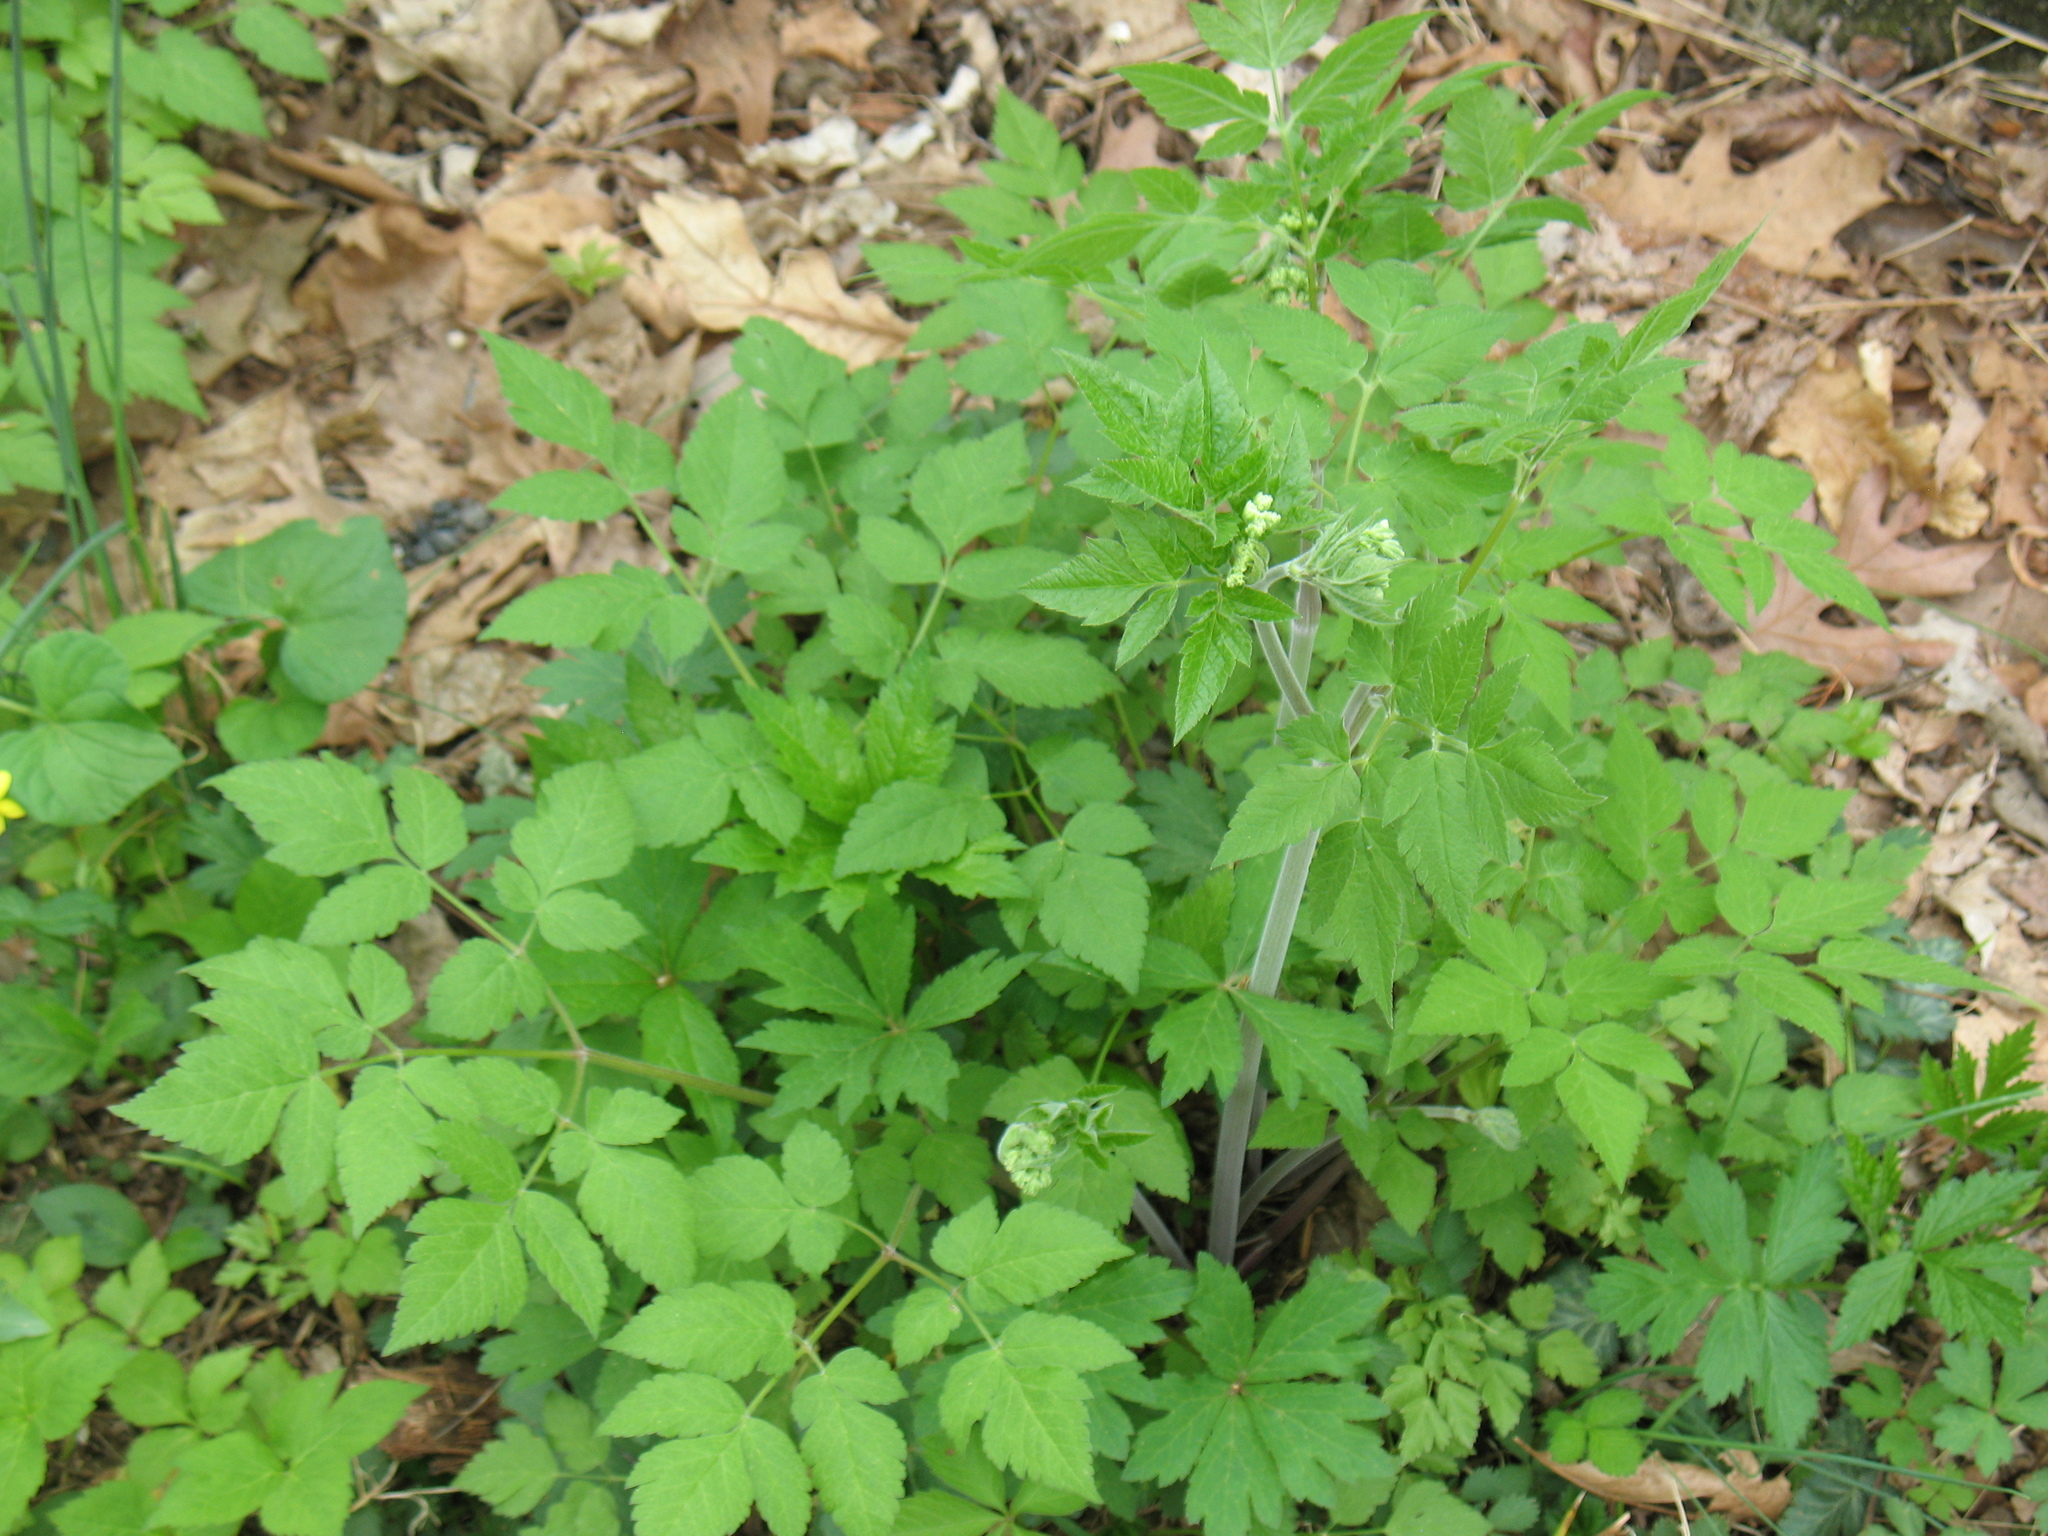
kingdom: Plantae
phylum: Tracheophyta
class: Magnoliopsida
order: Apiales
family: Apiaceae
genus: Osmorhiza
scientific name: Osmorhiza longistylis
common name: Smooth sweet cicely
